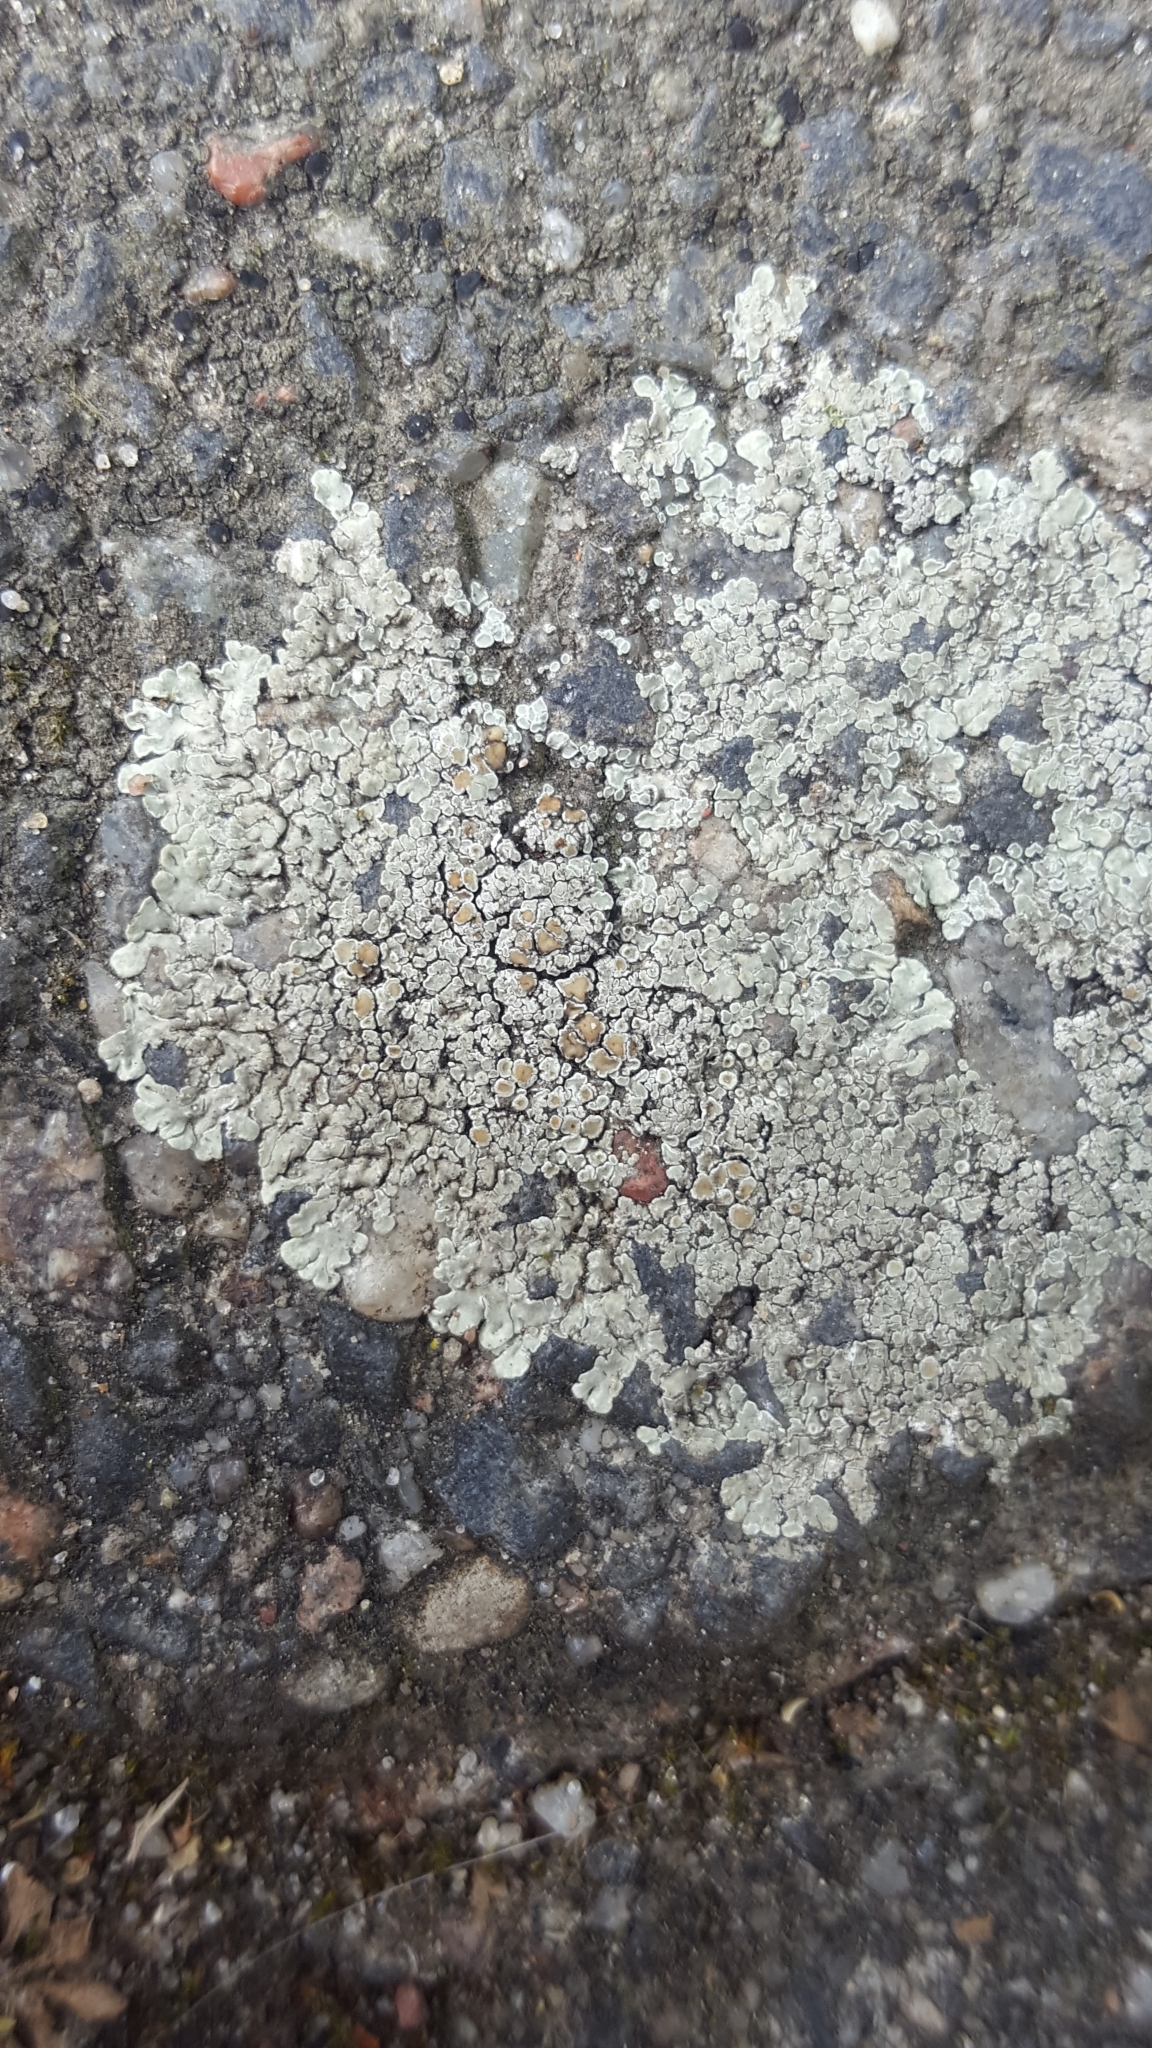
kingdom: Fungi
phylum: Ascomycota
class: Lecanoromycetes
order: Lecanorales
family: Lecanoraceae
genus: Protoparmeliopsis
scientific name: Protoparmeliopsis muralis
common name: Stonewall rim lichen
